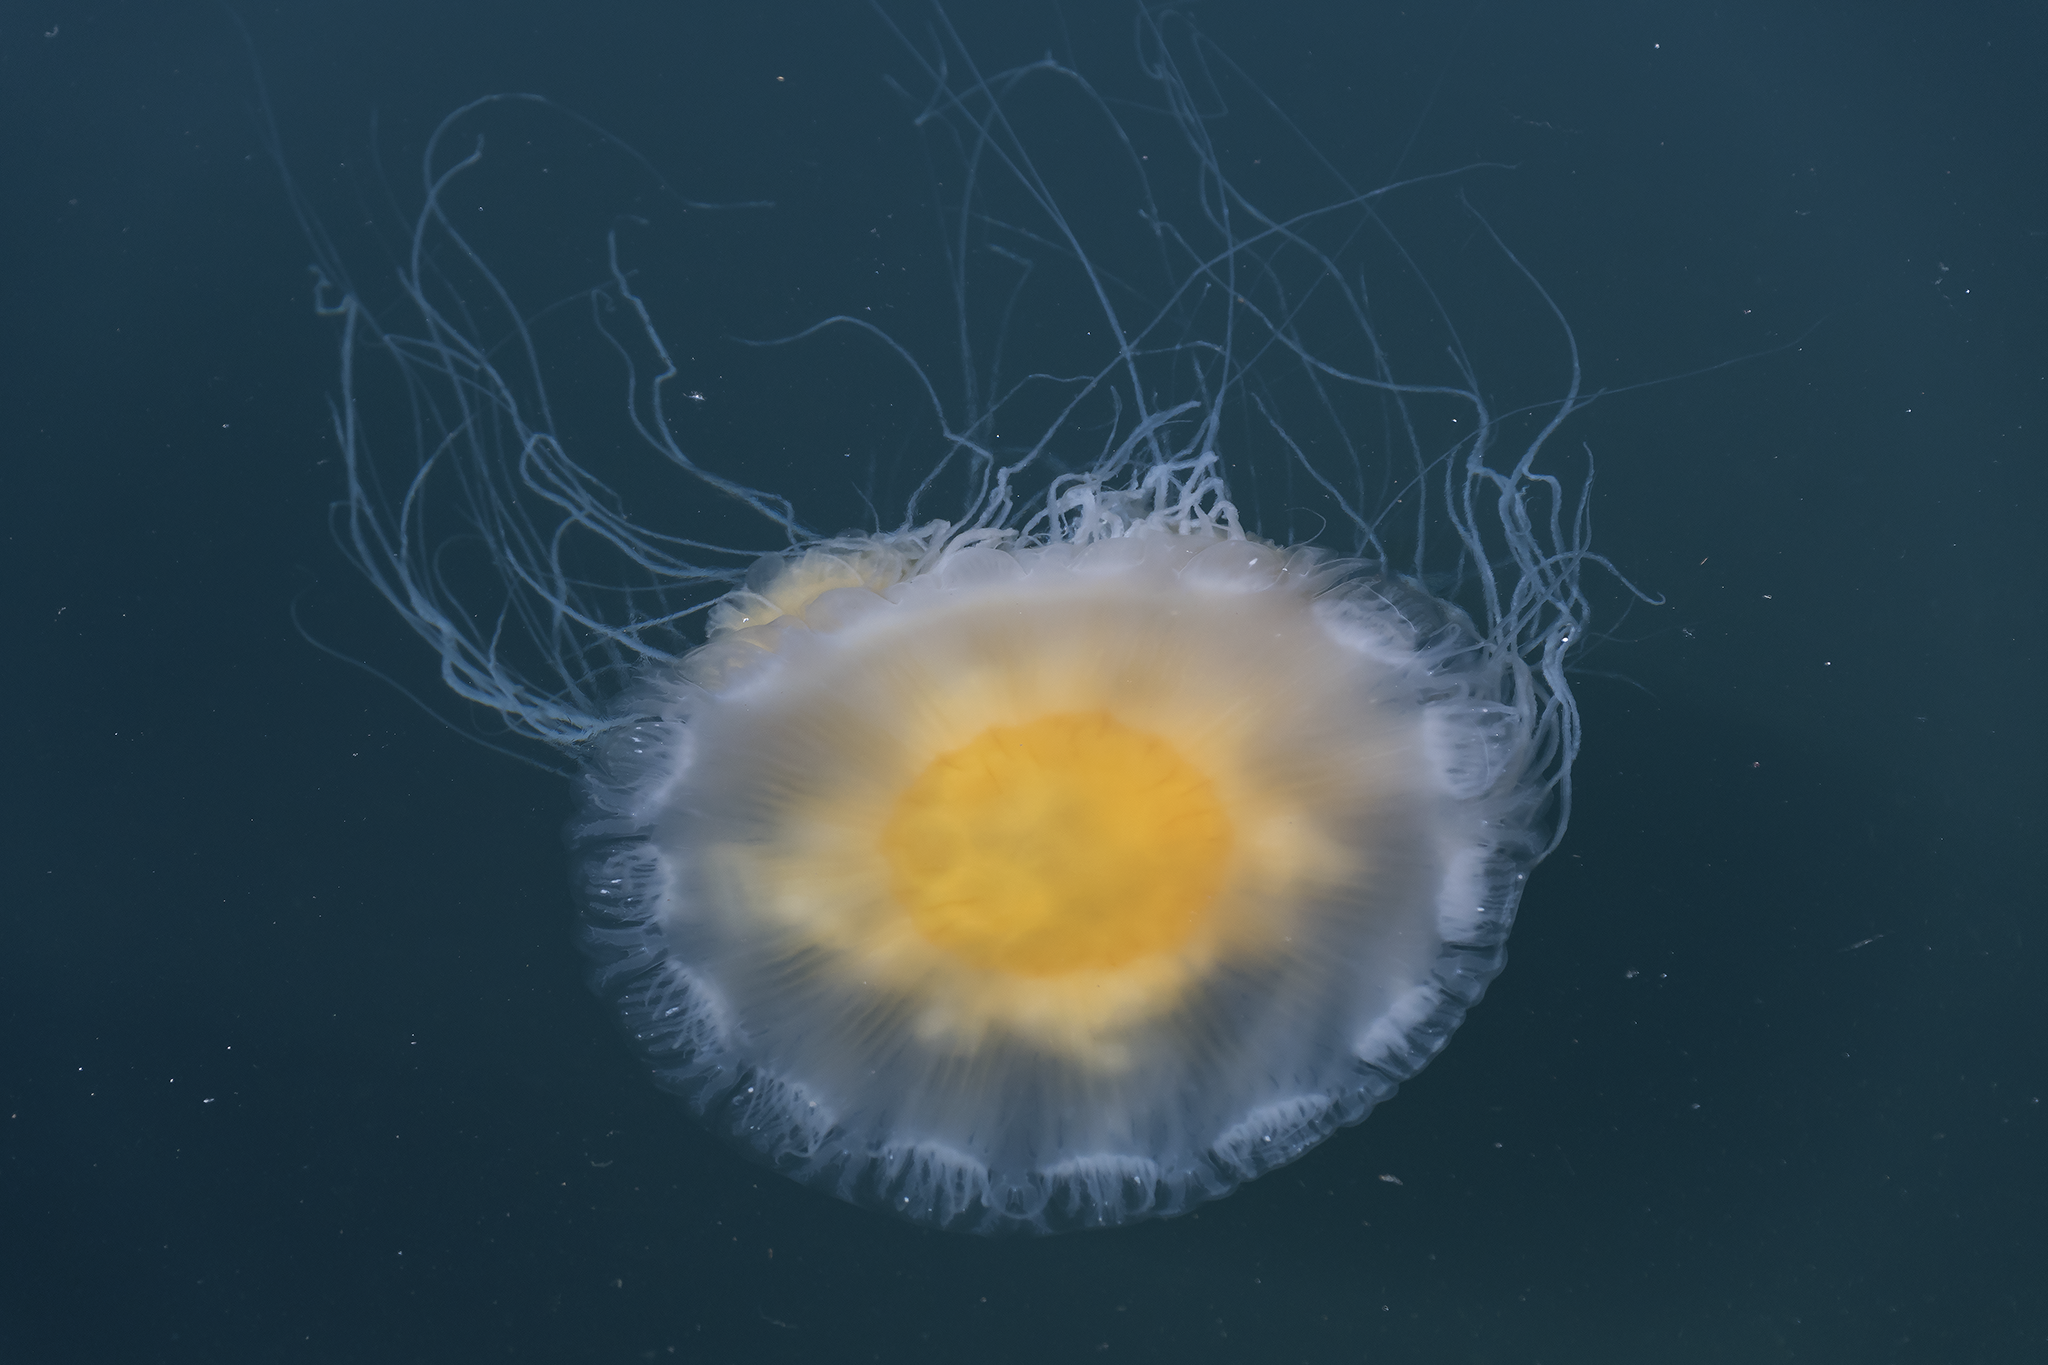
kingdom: Animalia
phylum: Cnidaria
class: Scyphozoa
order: Semaeostomeae
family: Phacellophoridae
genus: Phacellophora
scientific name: Phacellophora camtschatica
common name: Fried-egg jellyfish
